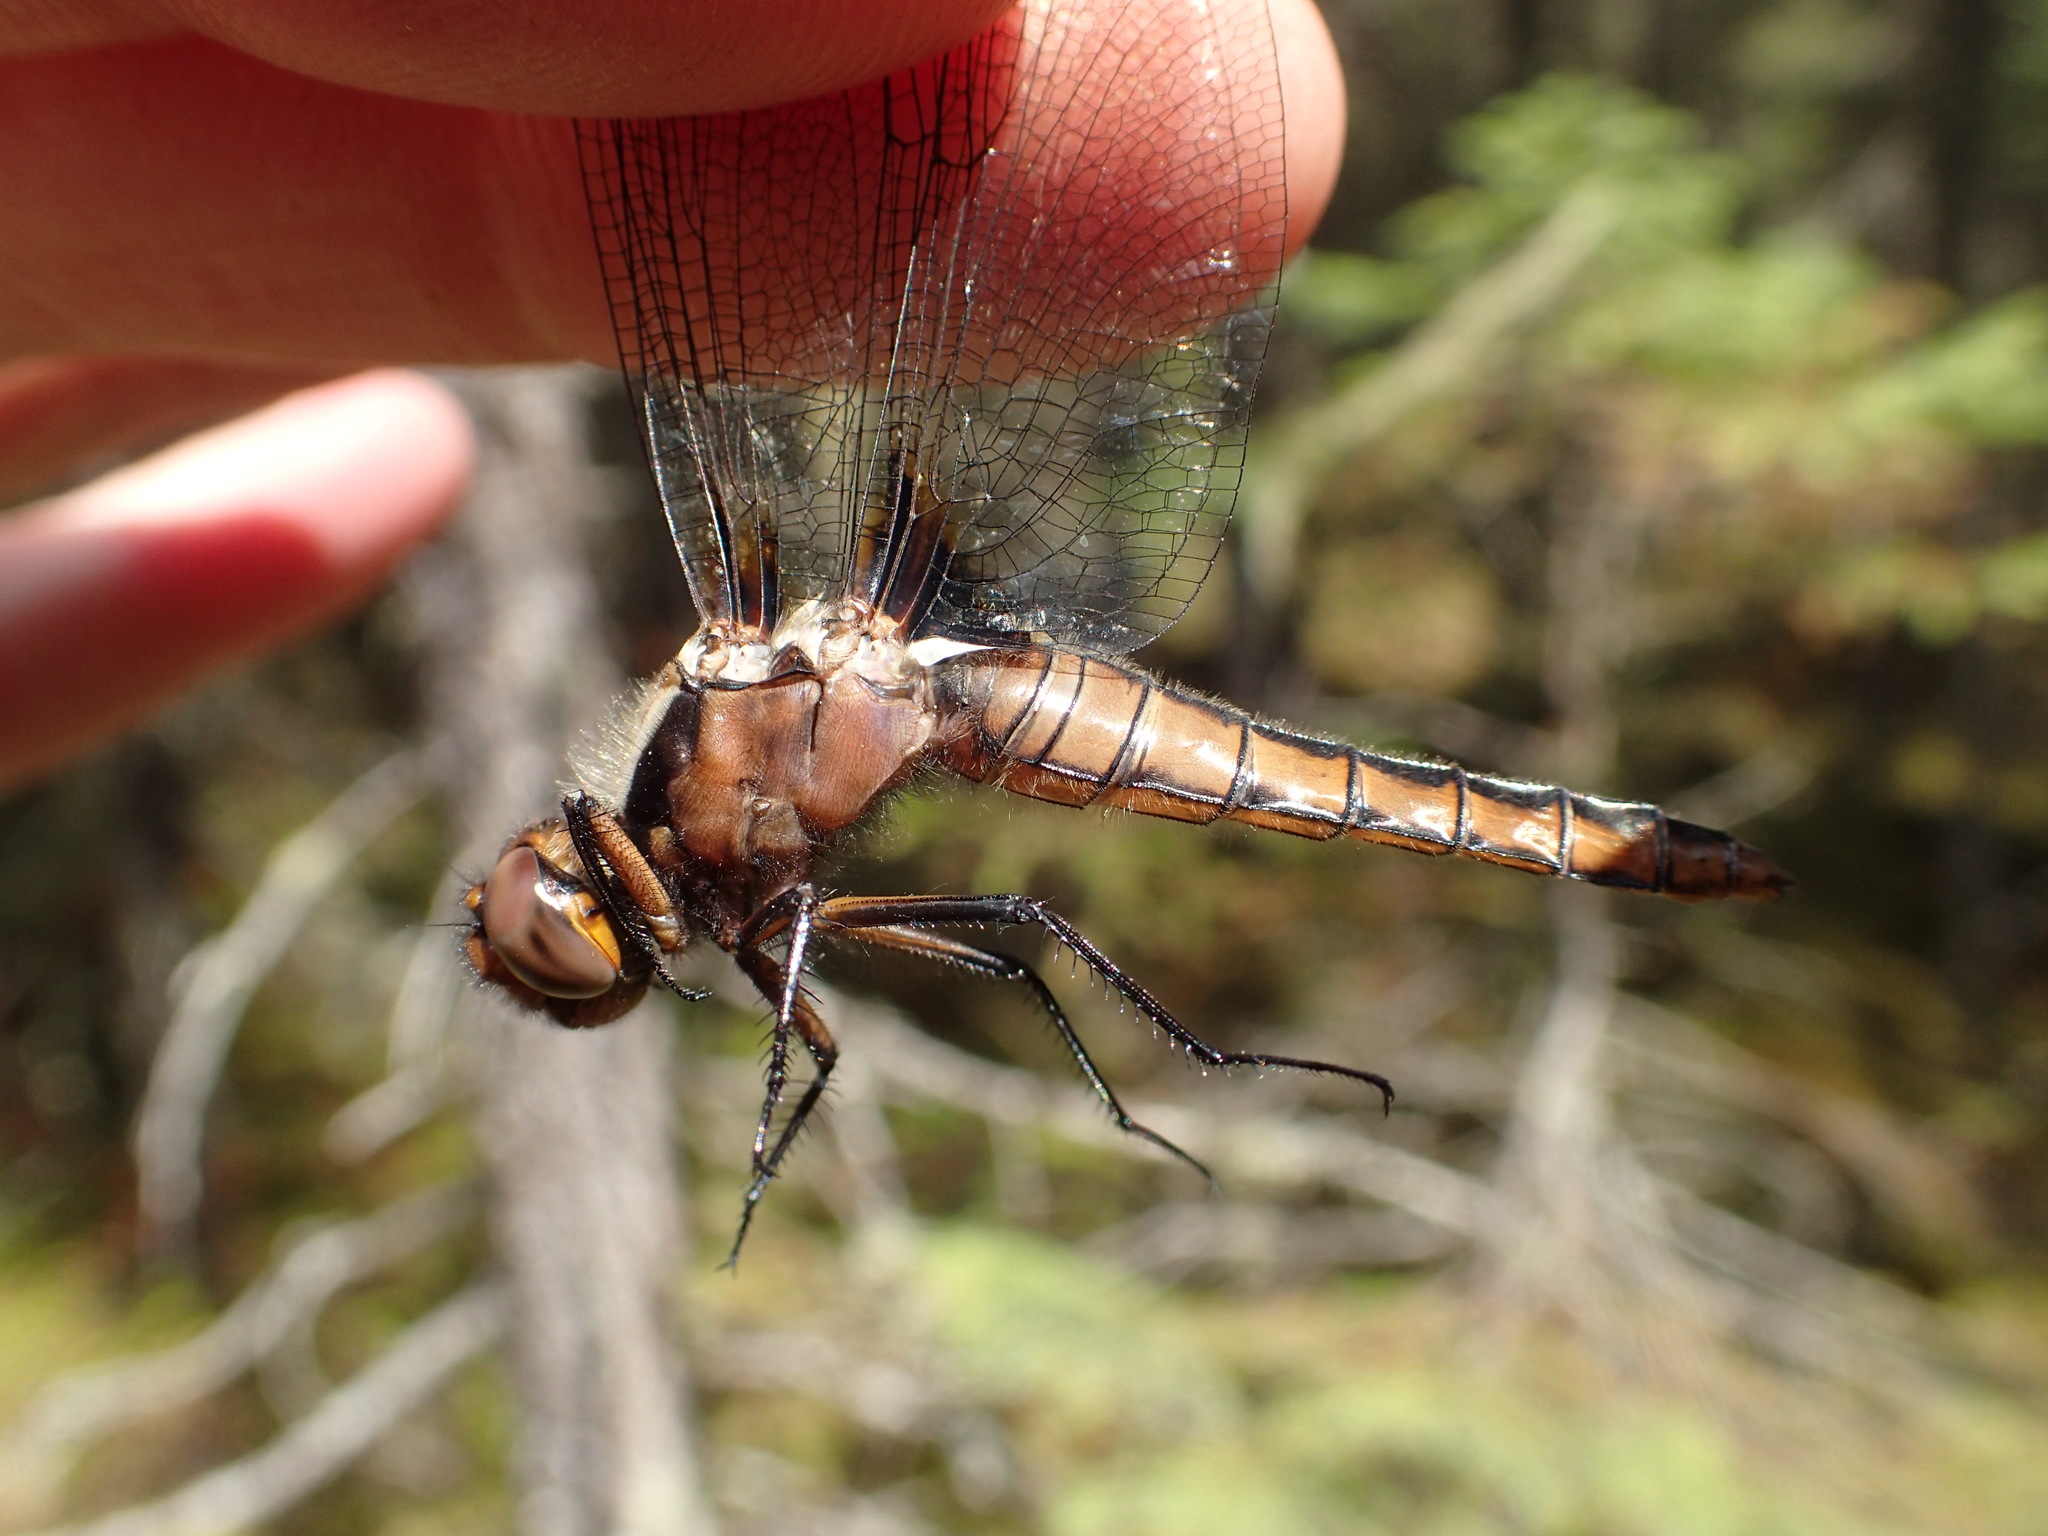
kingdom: Animalia
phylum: Arthropoda
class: Insecta
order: Odonata
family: Libellulidae
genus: Ladona
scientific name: Ladona julia
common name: Chalk-fronted corporal
